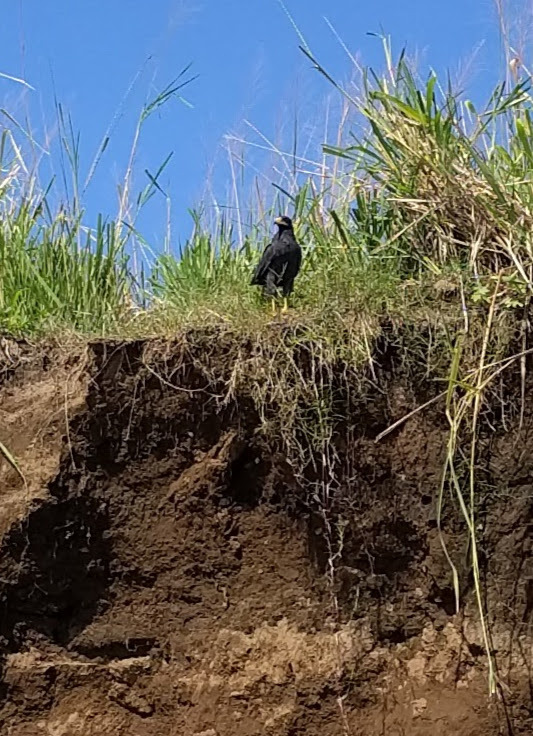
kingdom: Animalia
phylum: Chordata
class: Aves
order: Accipitriformes
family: Accipitridae
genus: Buteogallus
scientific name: Buteogallus anthracinus
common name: Common black hawk
